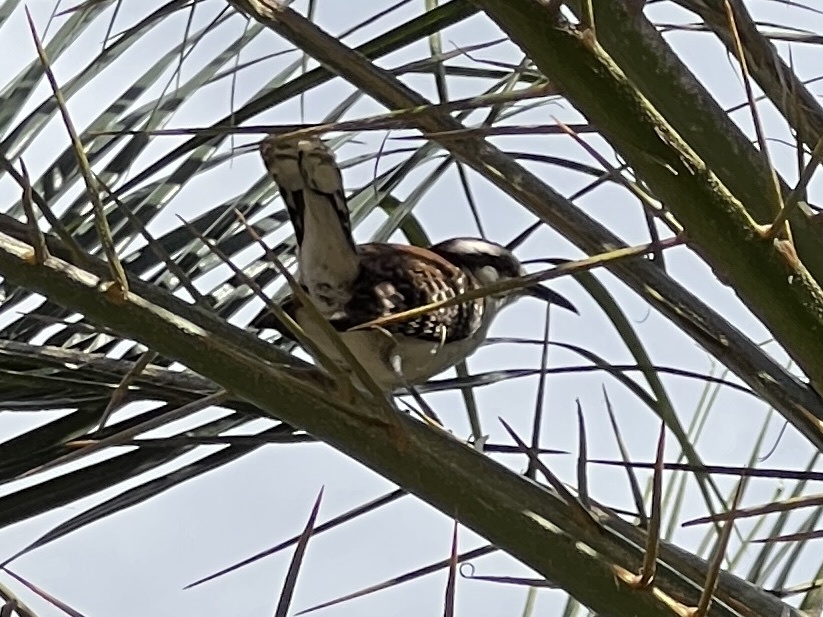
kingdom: Animalia
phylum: Chordata
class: Aves
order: Passeriformes
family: Troglodytidae
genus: Campylorhynchus
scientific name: Campylorhynchus rufinucha
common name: Rufous-naped wren
